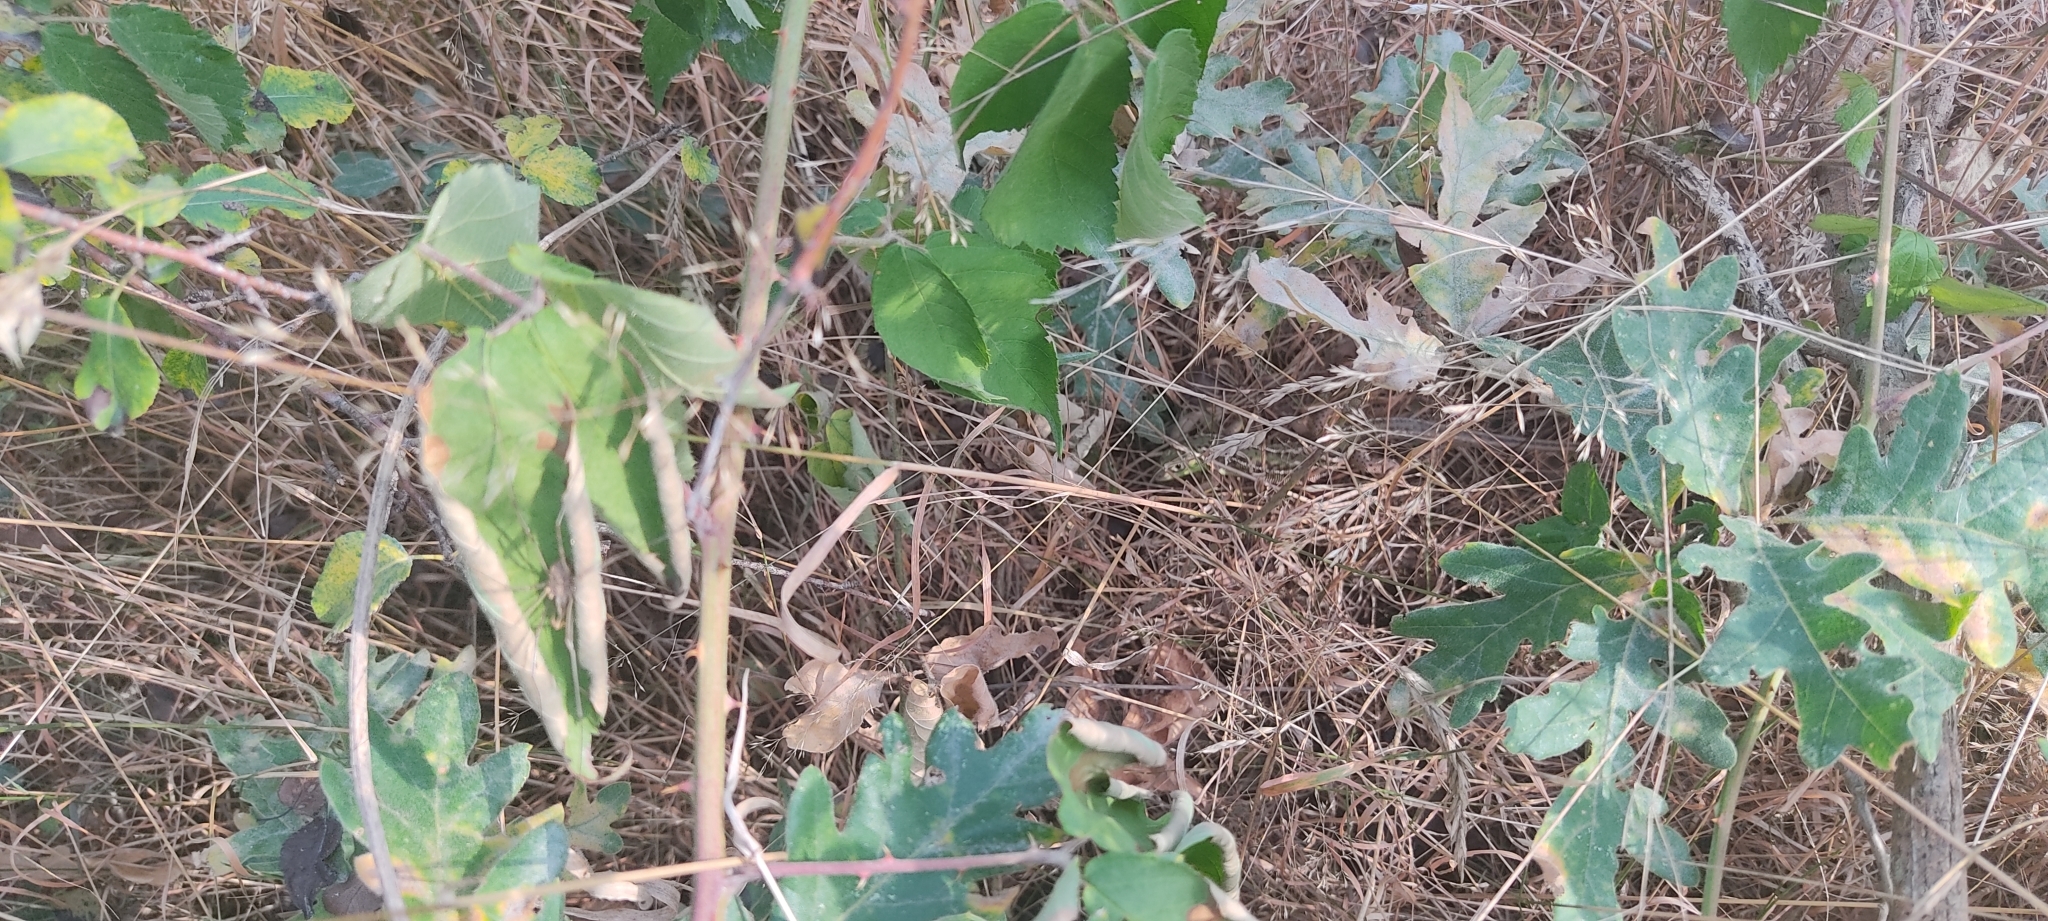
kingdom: Animalia
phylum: Chordata
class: Squamata
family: Lacertidae
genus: Lacerta
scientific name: Lacerta bilineata
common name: Western green lizard
